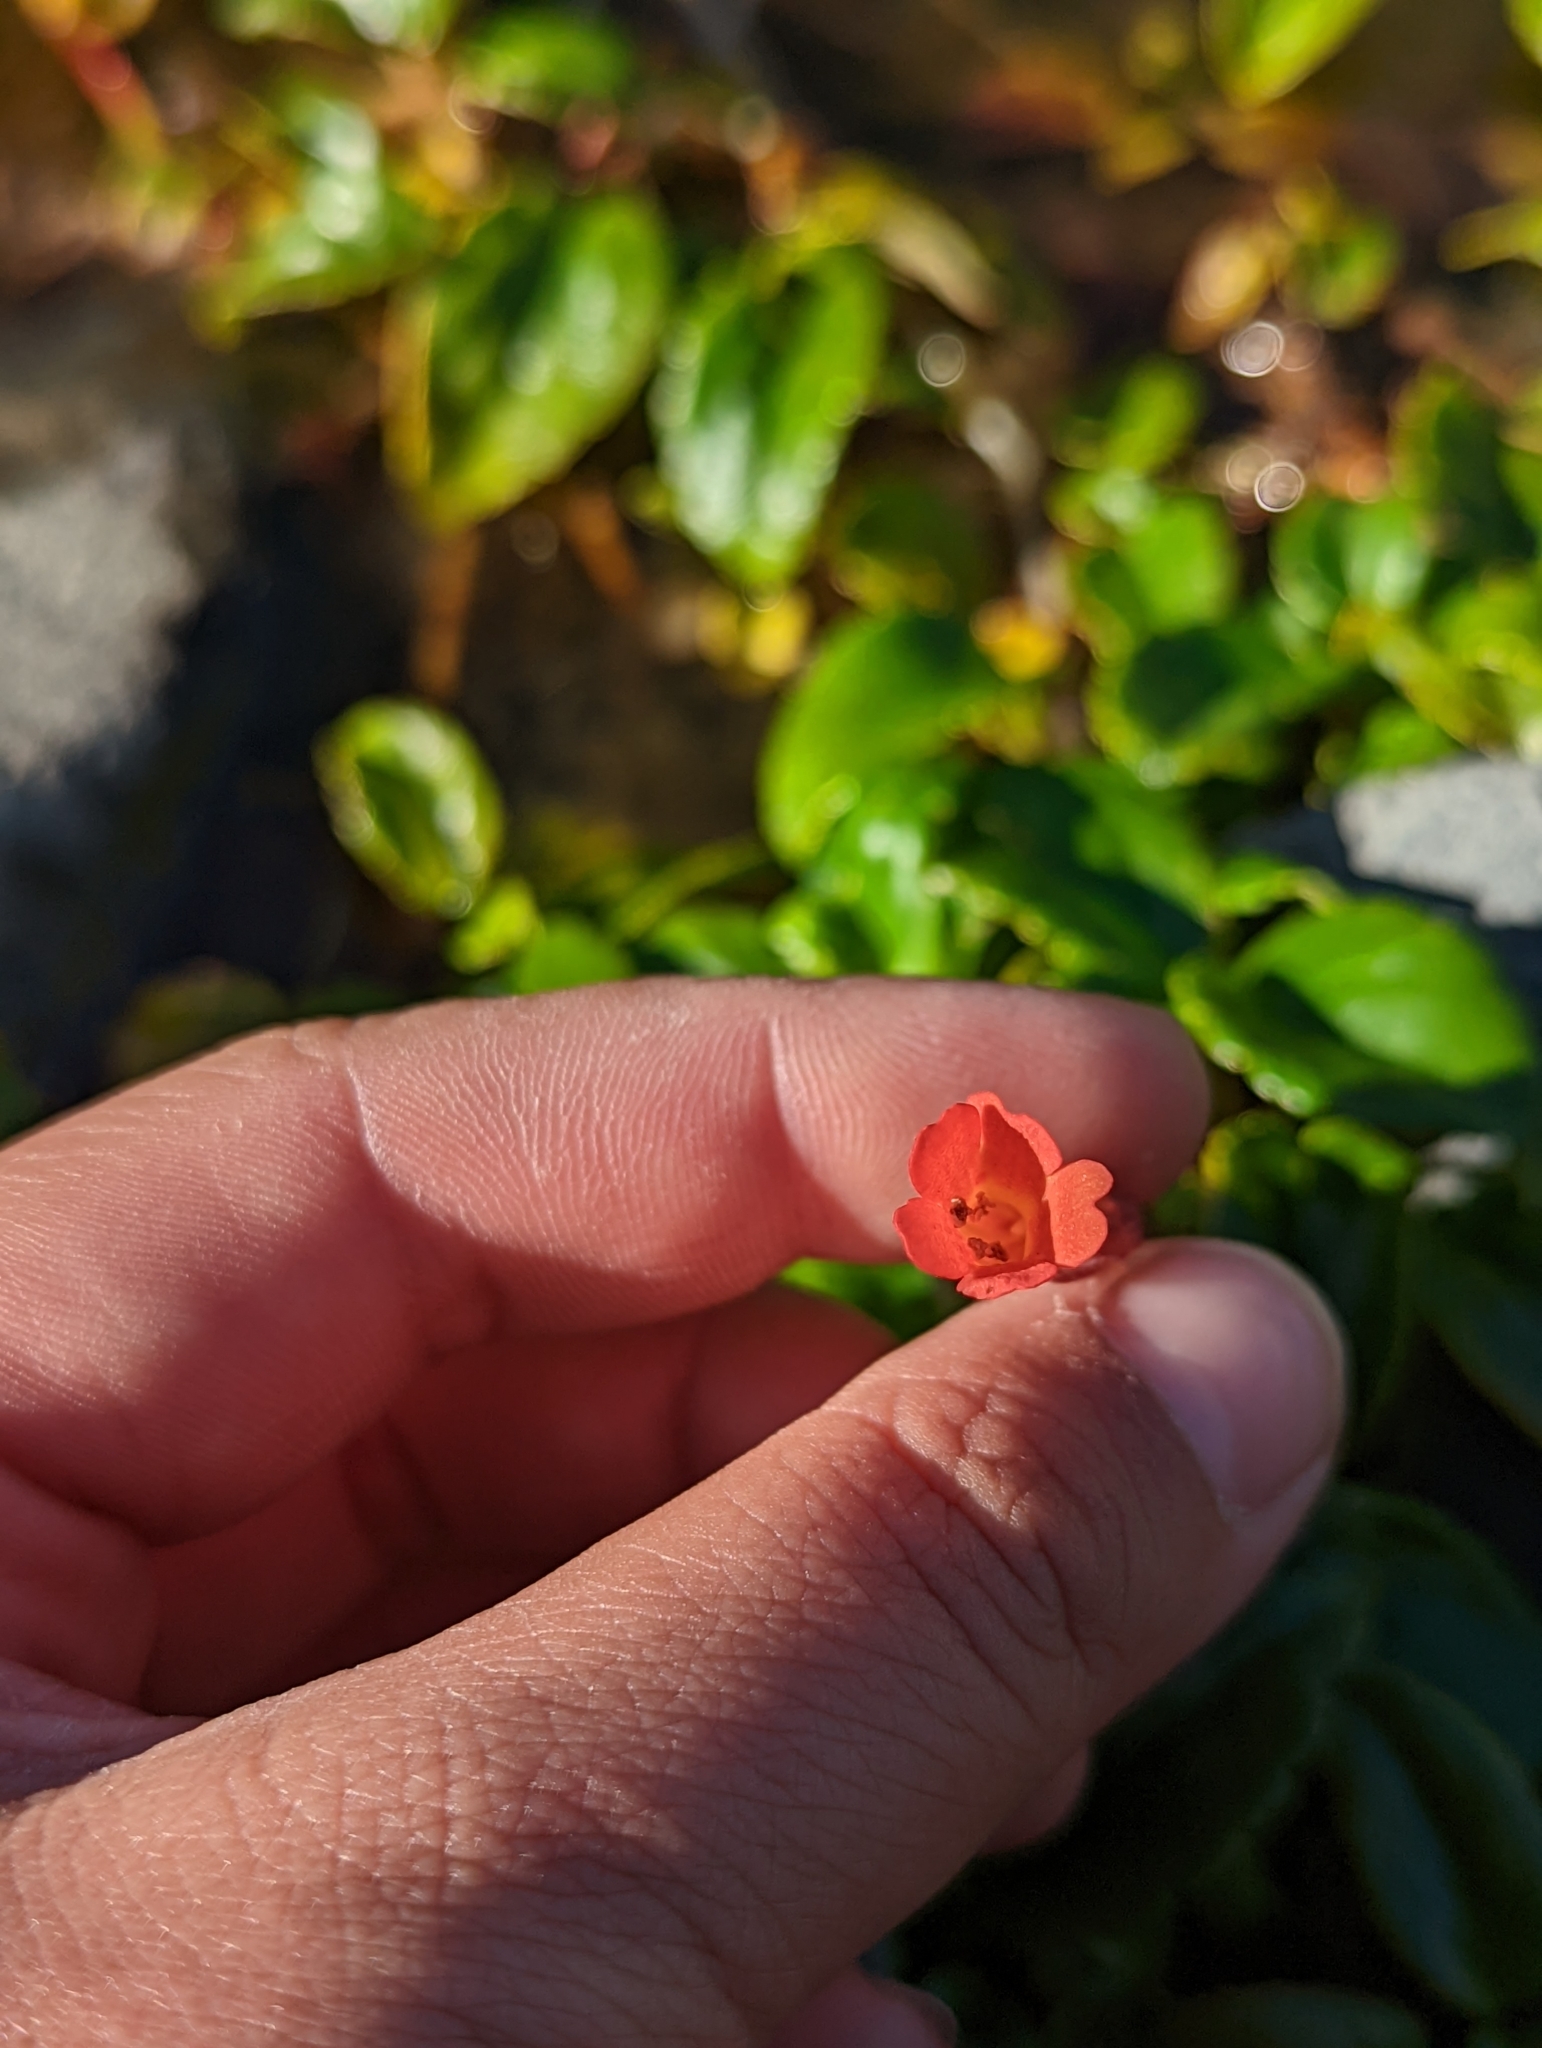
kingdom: Plantae
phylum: Tracheophyta
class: Magnoliopsida
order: Lamiales
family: Plantaginaceae
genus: Ourisia
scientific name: Ourisia ruellioides
